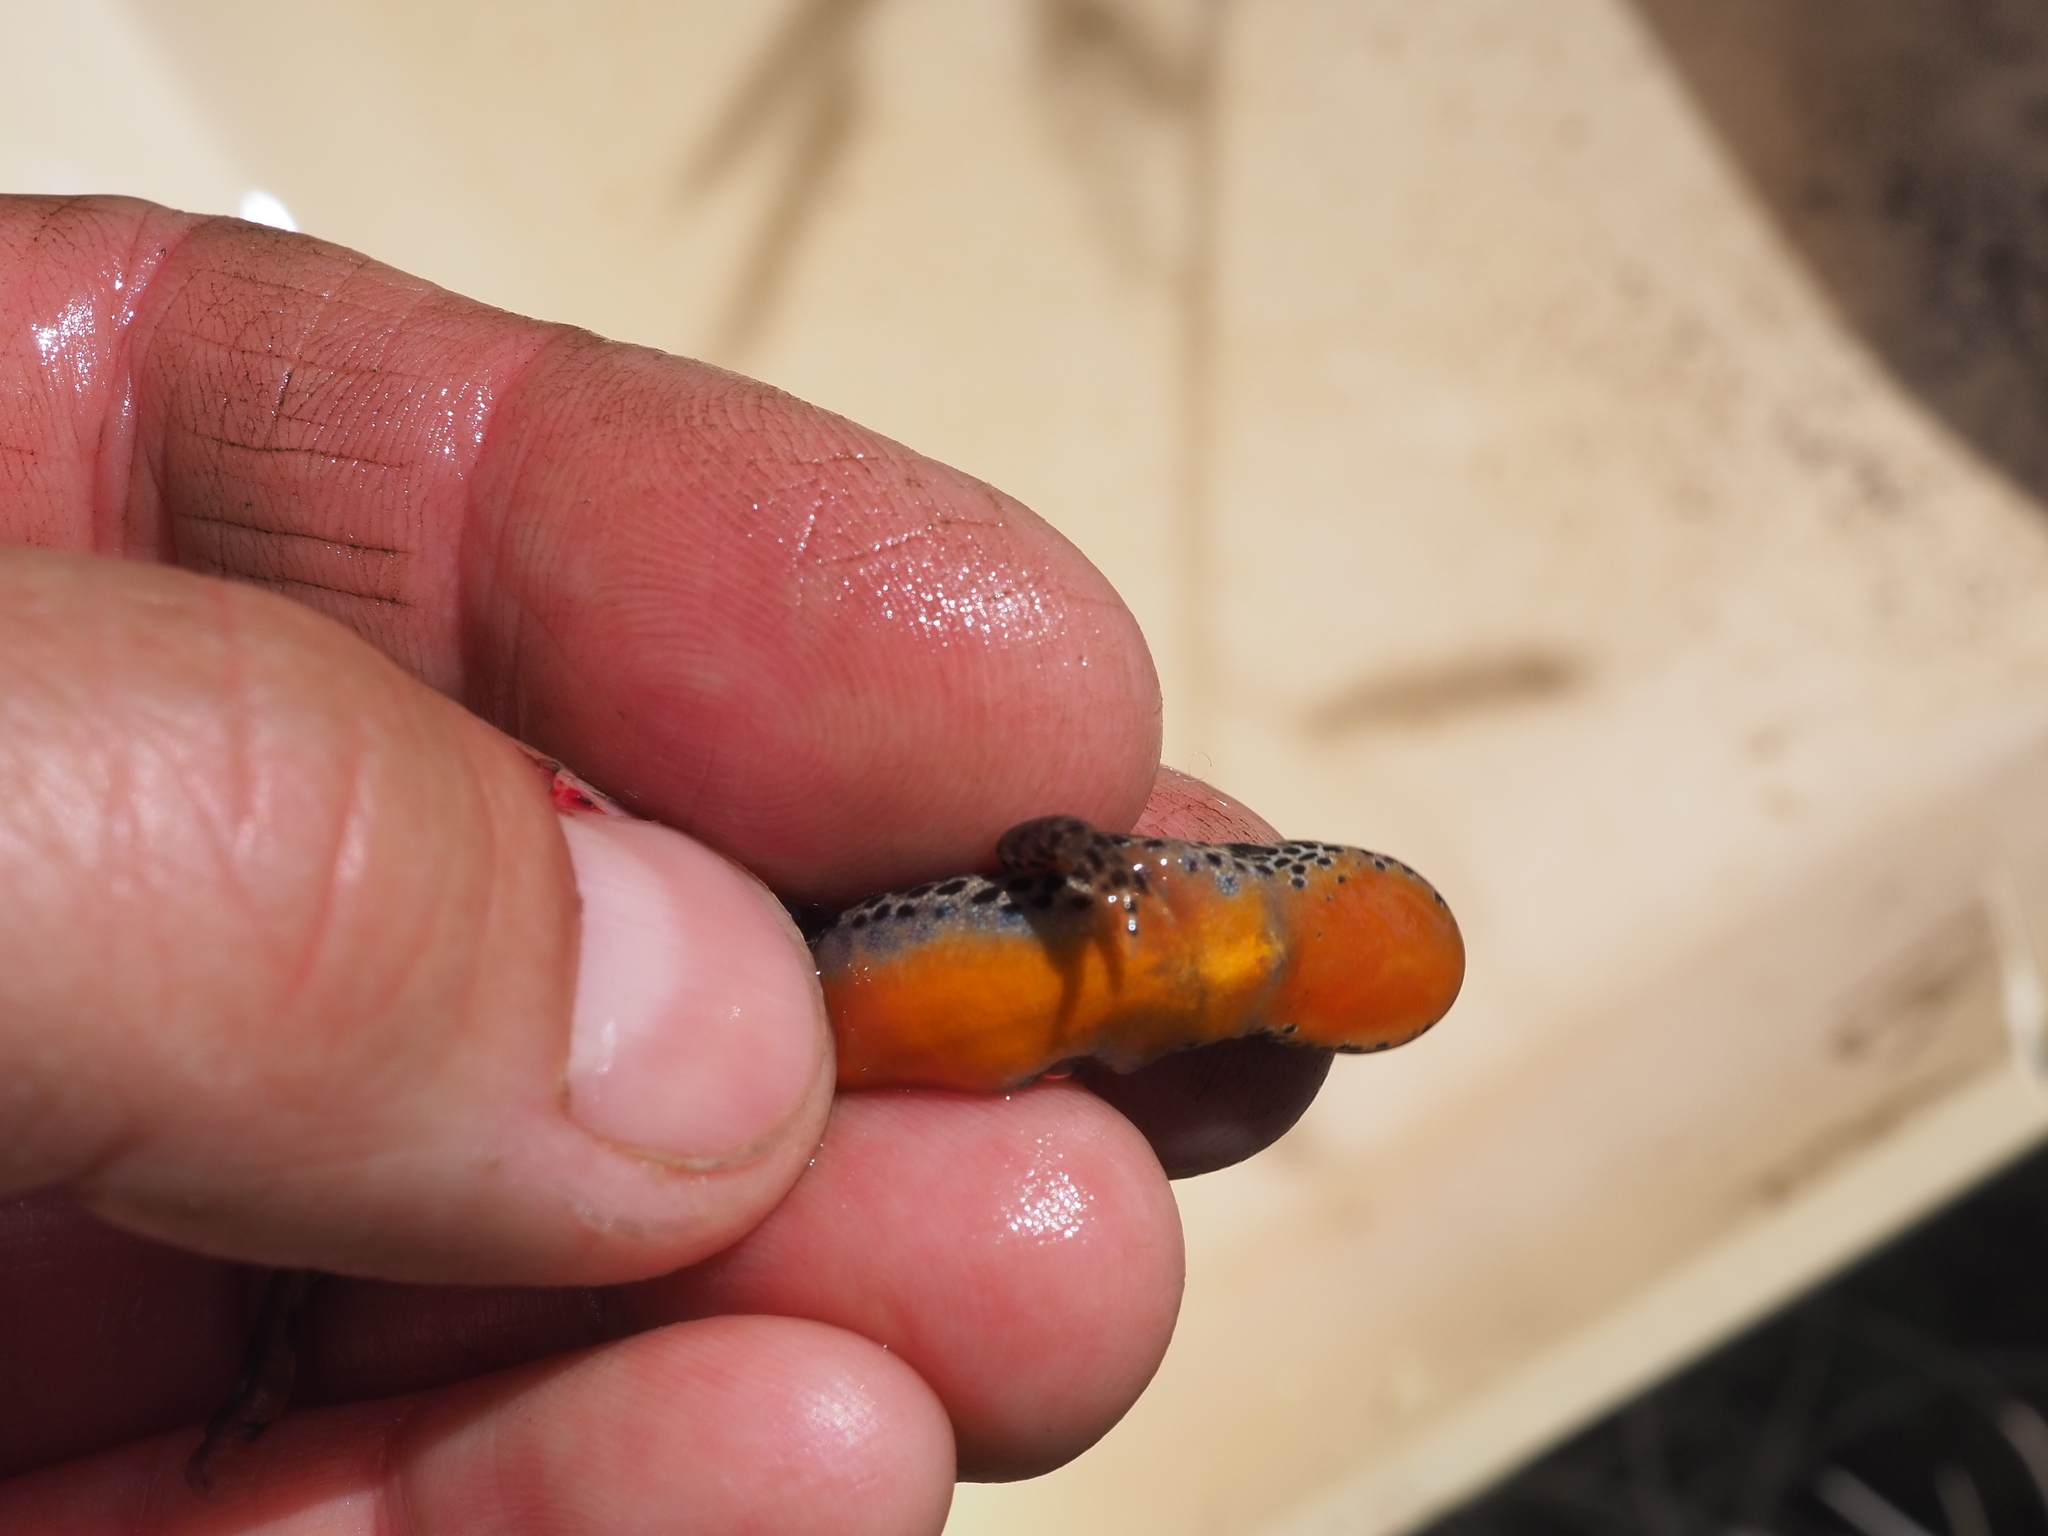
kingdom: Animalia
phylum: Chordata
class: Amphibia
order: Caudata
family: Salamandridae
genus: Ichthyosaura
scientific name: Ichthyosaura alpestris
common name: Alpine newt
